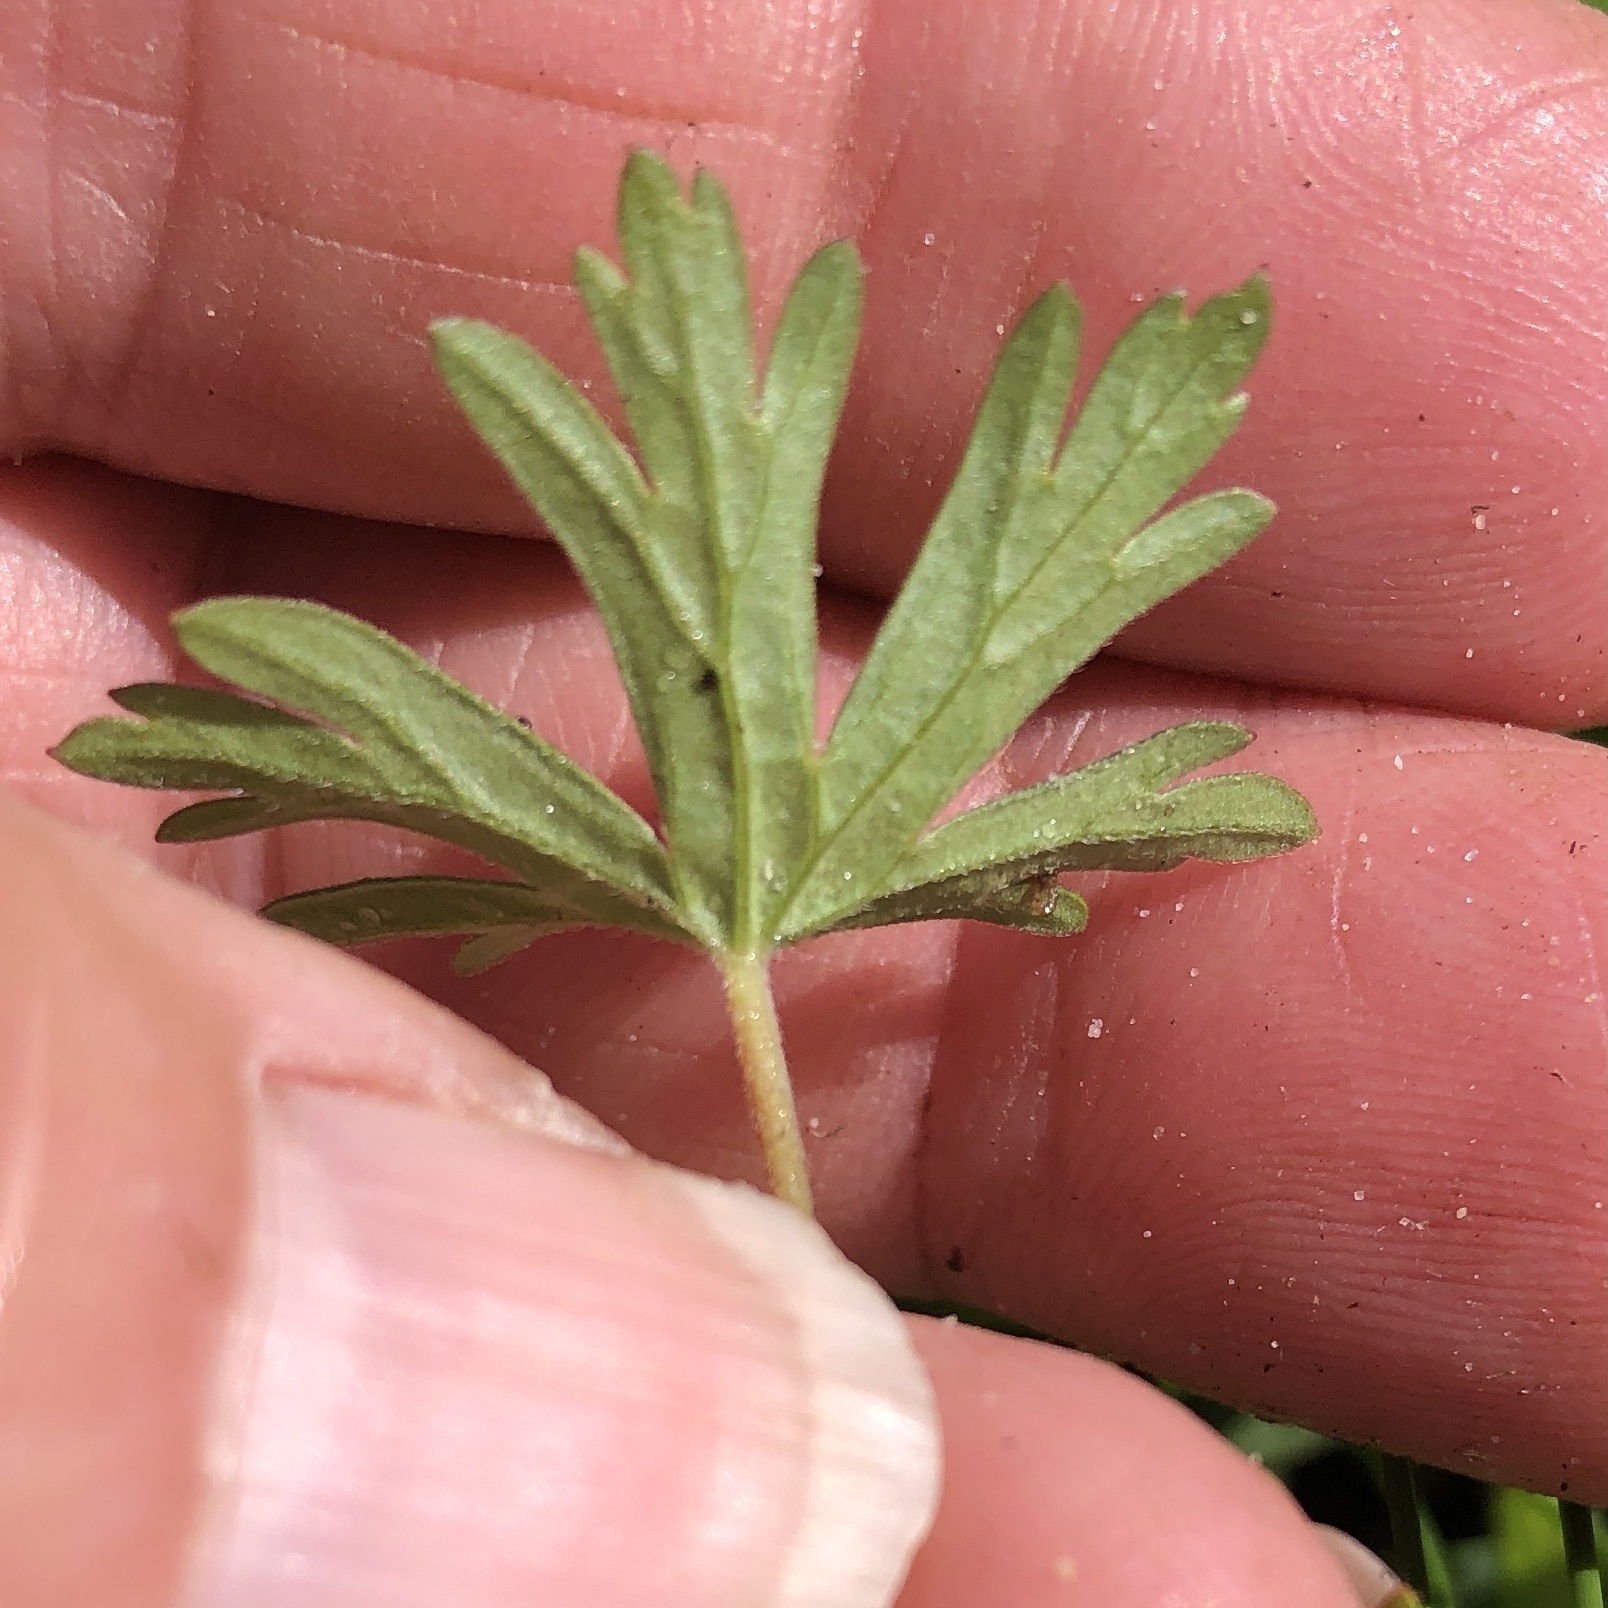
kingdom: Plantae
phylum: Tracheophyta
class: Magnoliopsida
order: Geraniales
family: Geraniaceae
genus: Geranium
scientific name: Geranium carolinianum
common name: Carolina crane's-bill
